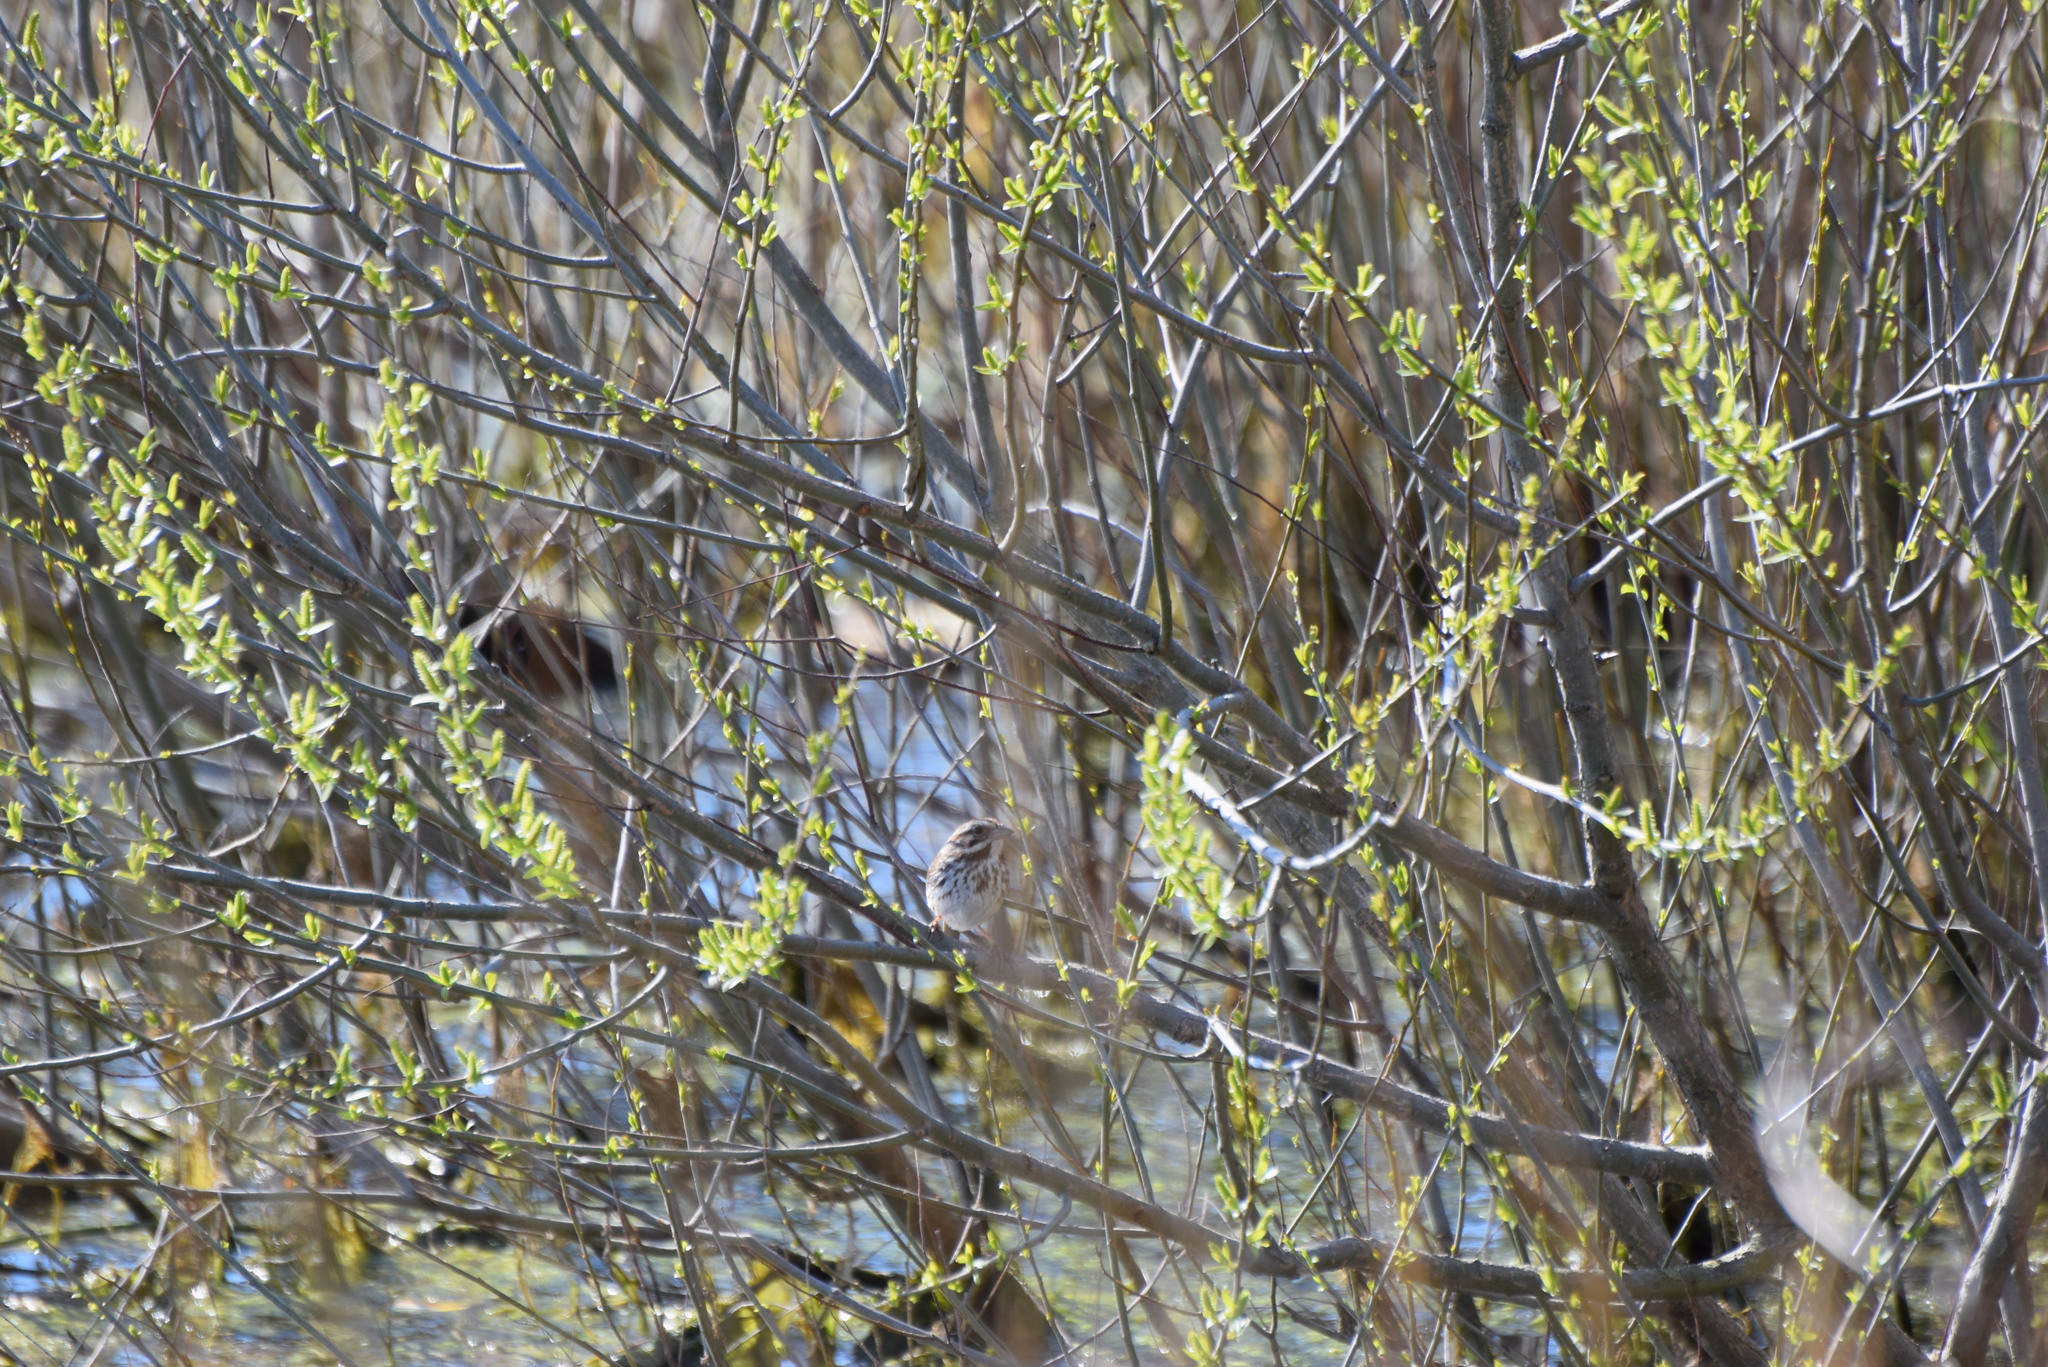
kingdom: Animalia
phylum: Chordata
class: Aves
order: Passeriformes
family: Passerellidae
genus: Melospiza
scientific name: Melospiza melodia
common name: Song sparrow
